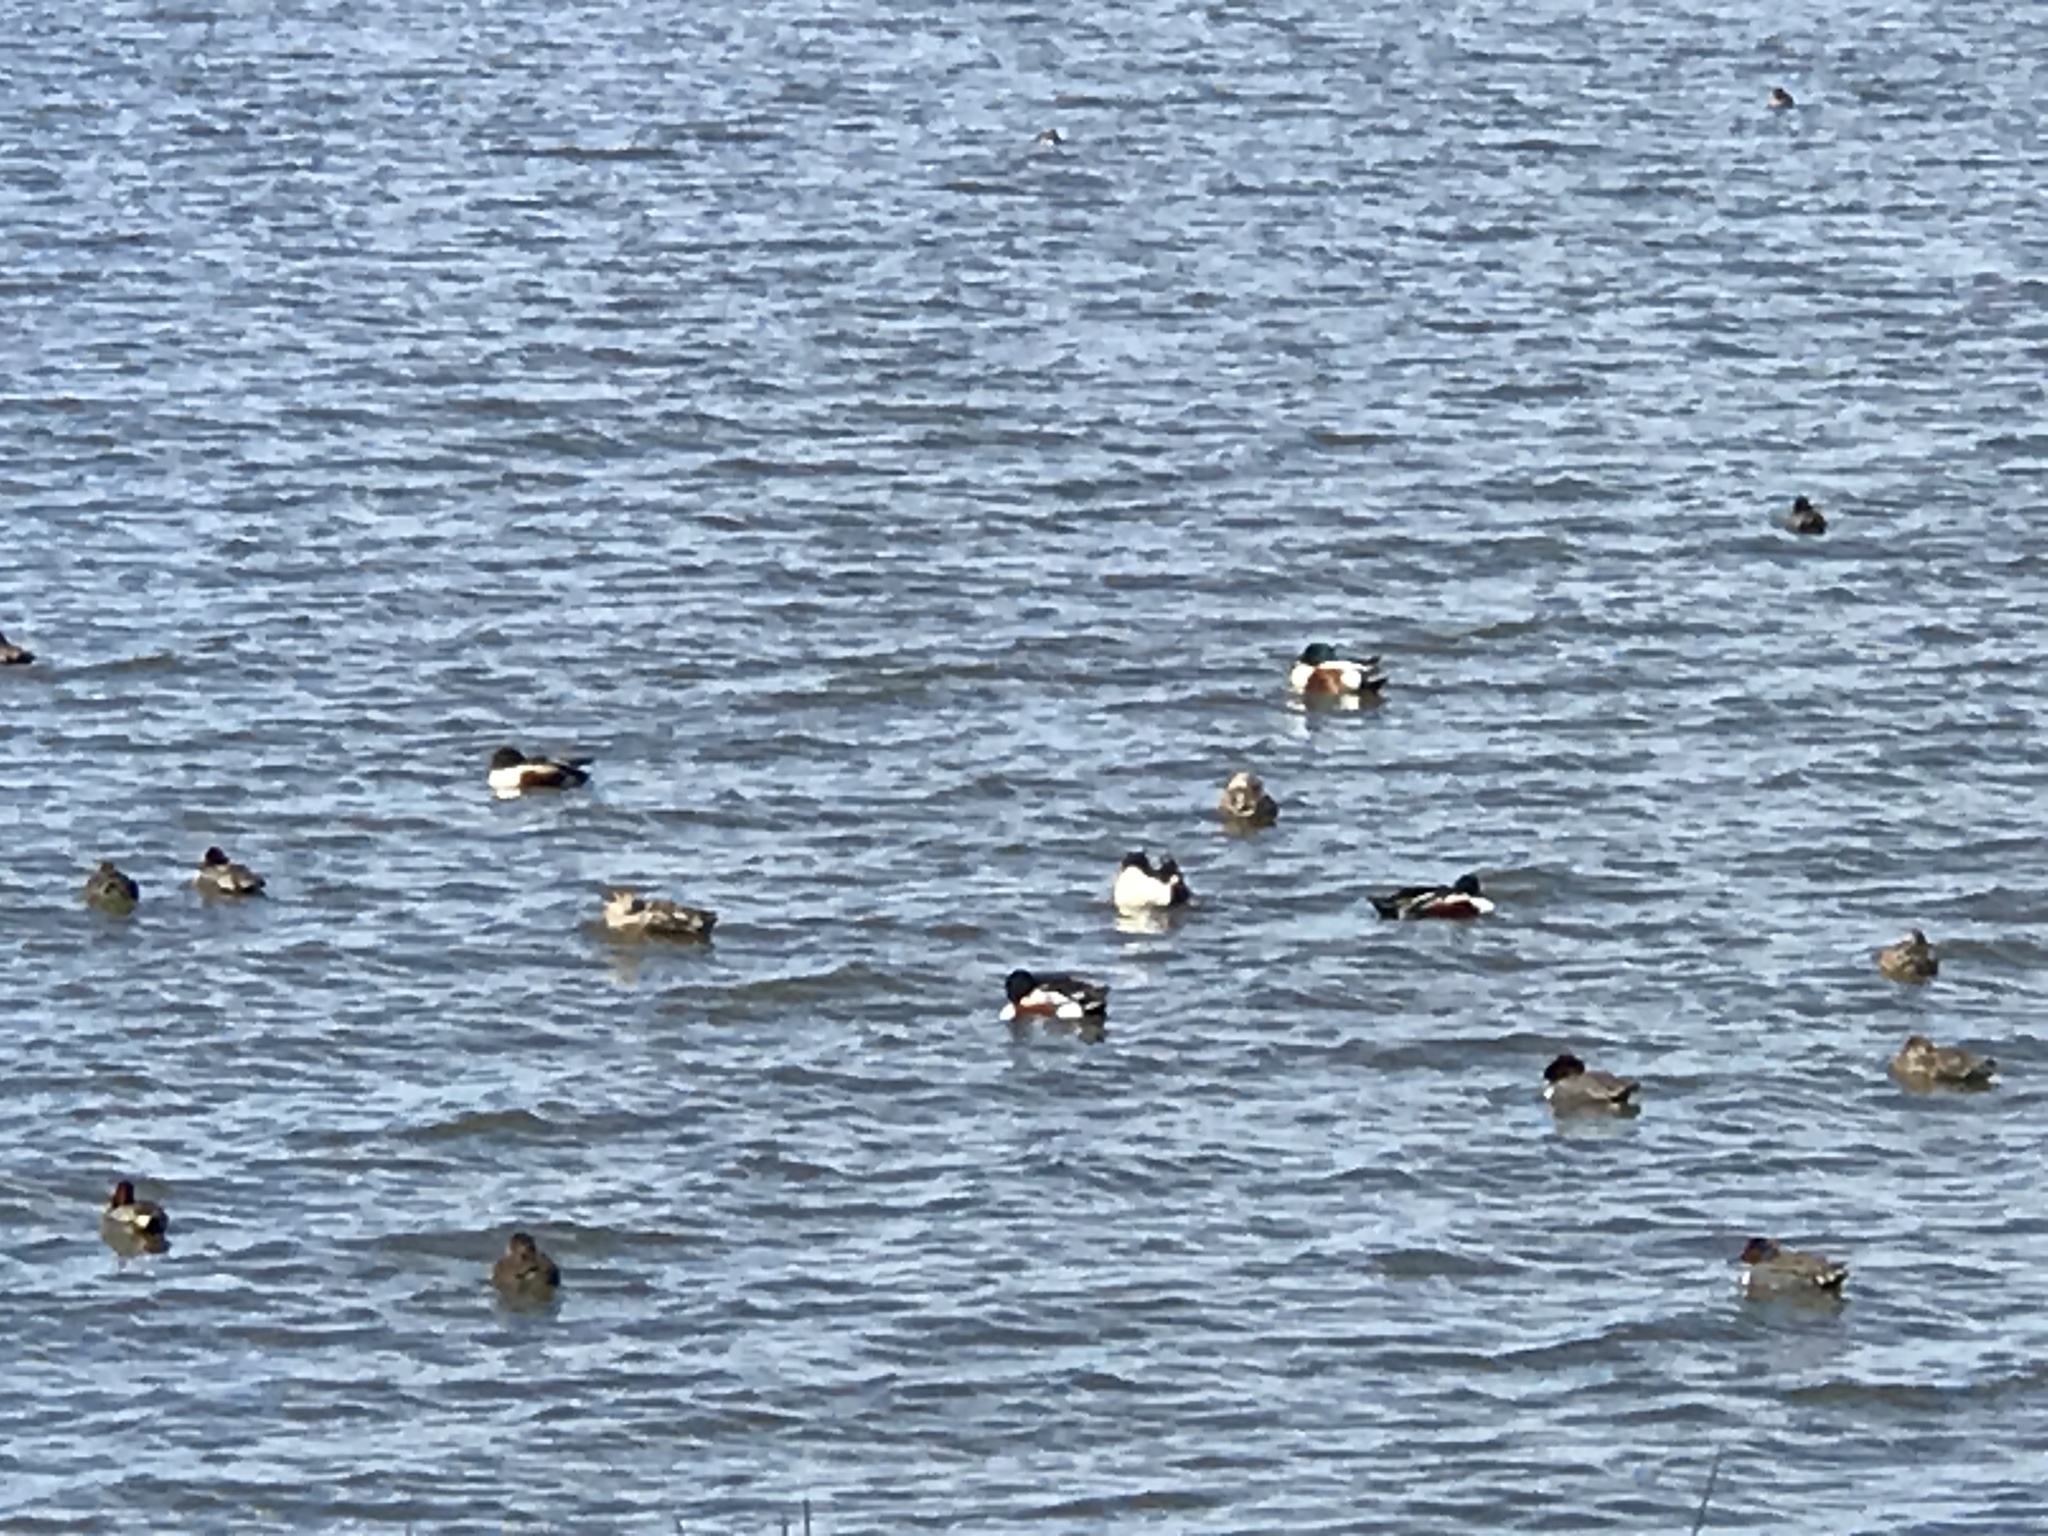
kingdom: Animalia
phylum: Chordata
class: Aves
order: Anseriformes
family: Anatidae
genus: Spatula
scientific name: Spatula clypeata
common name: Northern shoveler
